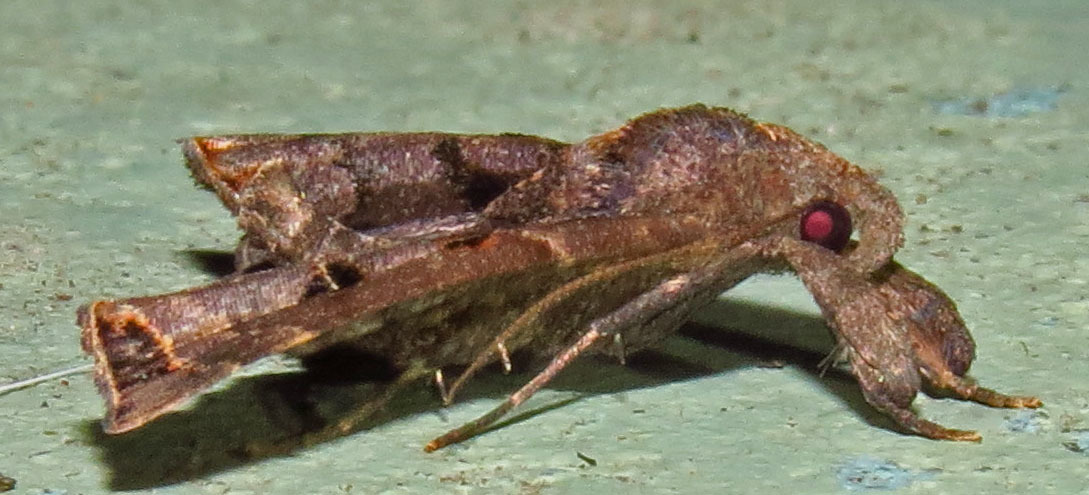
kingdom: Animalia
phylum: Arthropoda
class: Insecta
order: Lepidoptera
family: Erebidae
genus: Palthis
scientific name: Palthis asopialis
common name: Faint-spotted palthis moth
